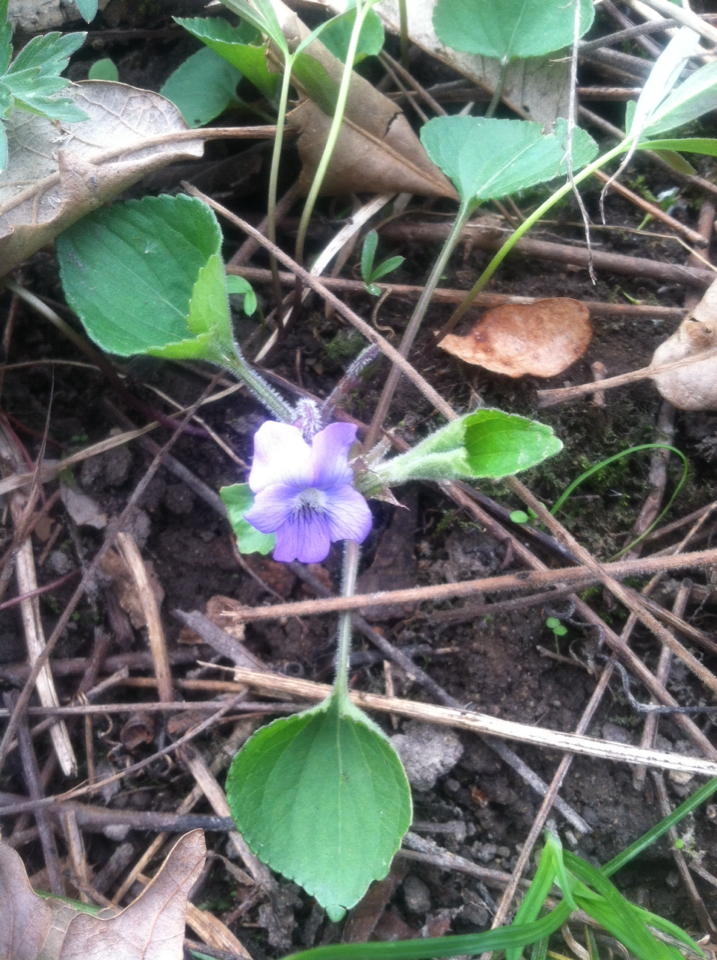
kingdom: Plantae
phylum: Tracheophyta
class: Magnoliopsida
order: Malpighiales
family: Violaceae
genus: Viola
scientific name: Viola sororia
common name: Dooryard violet
